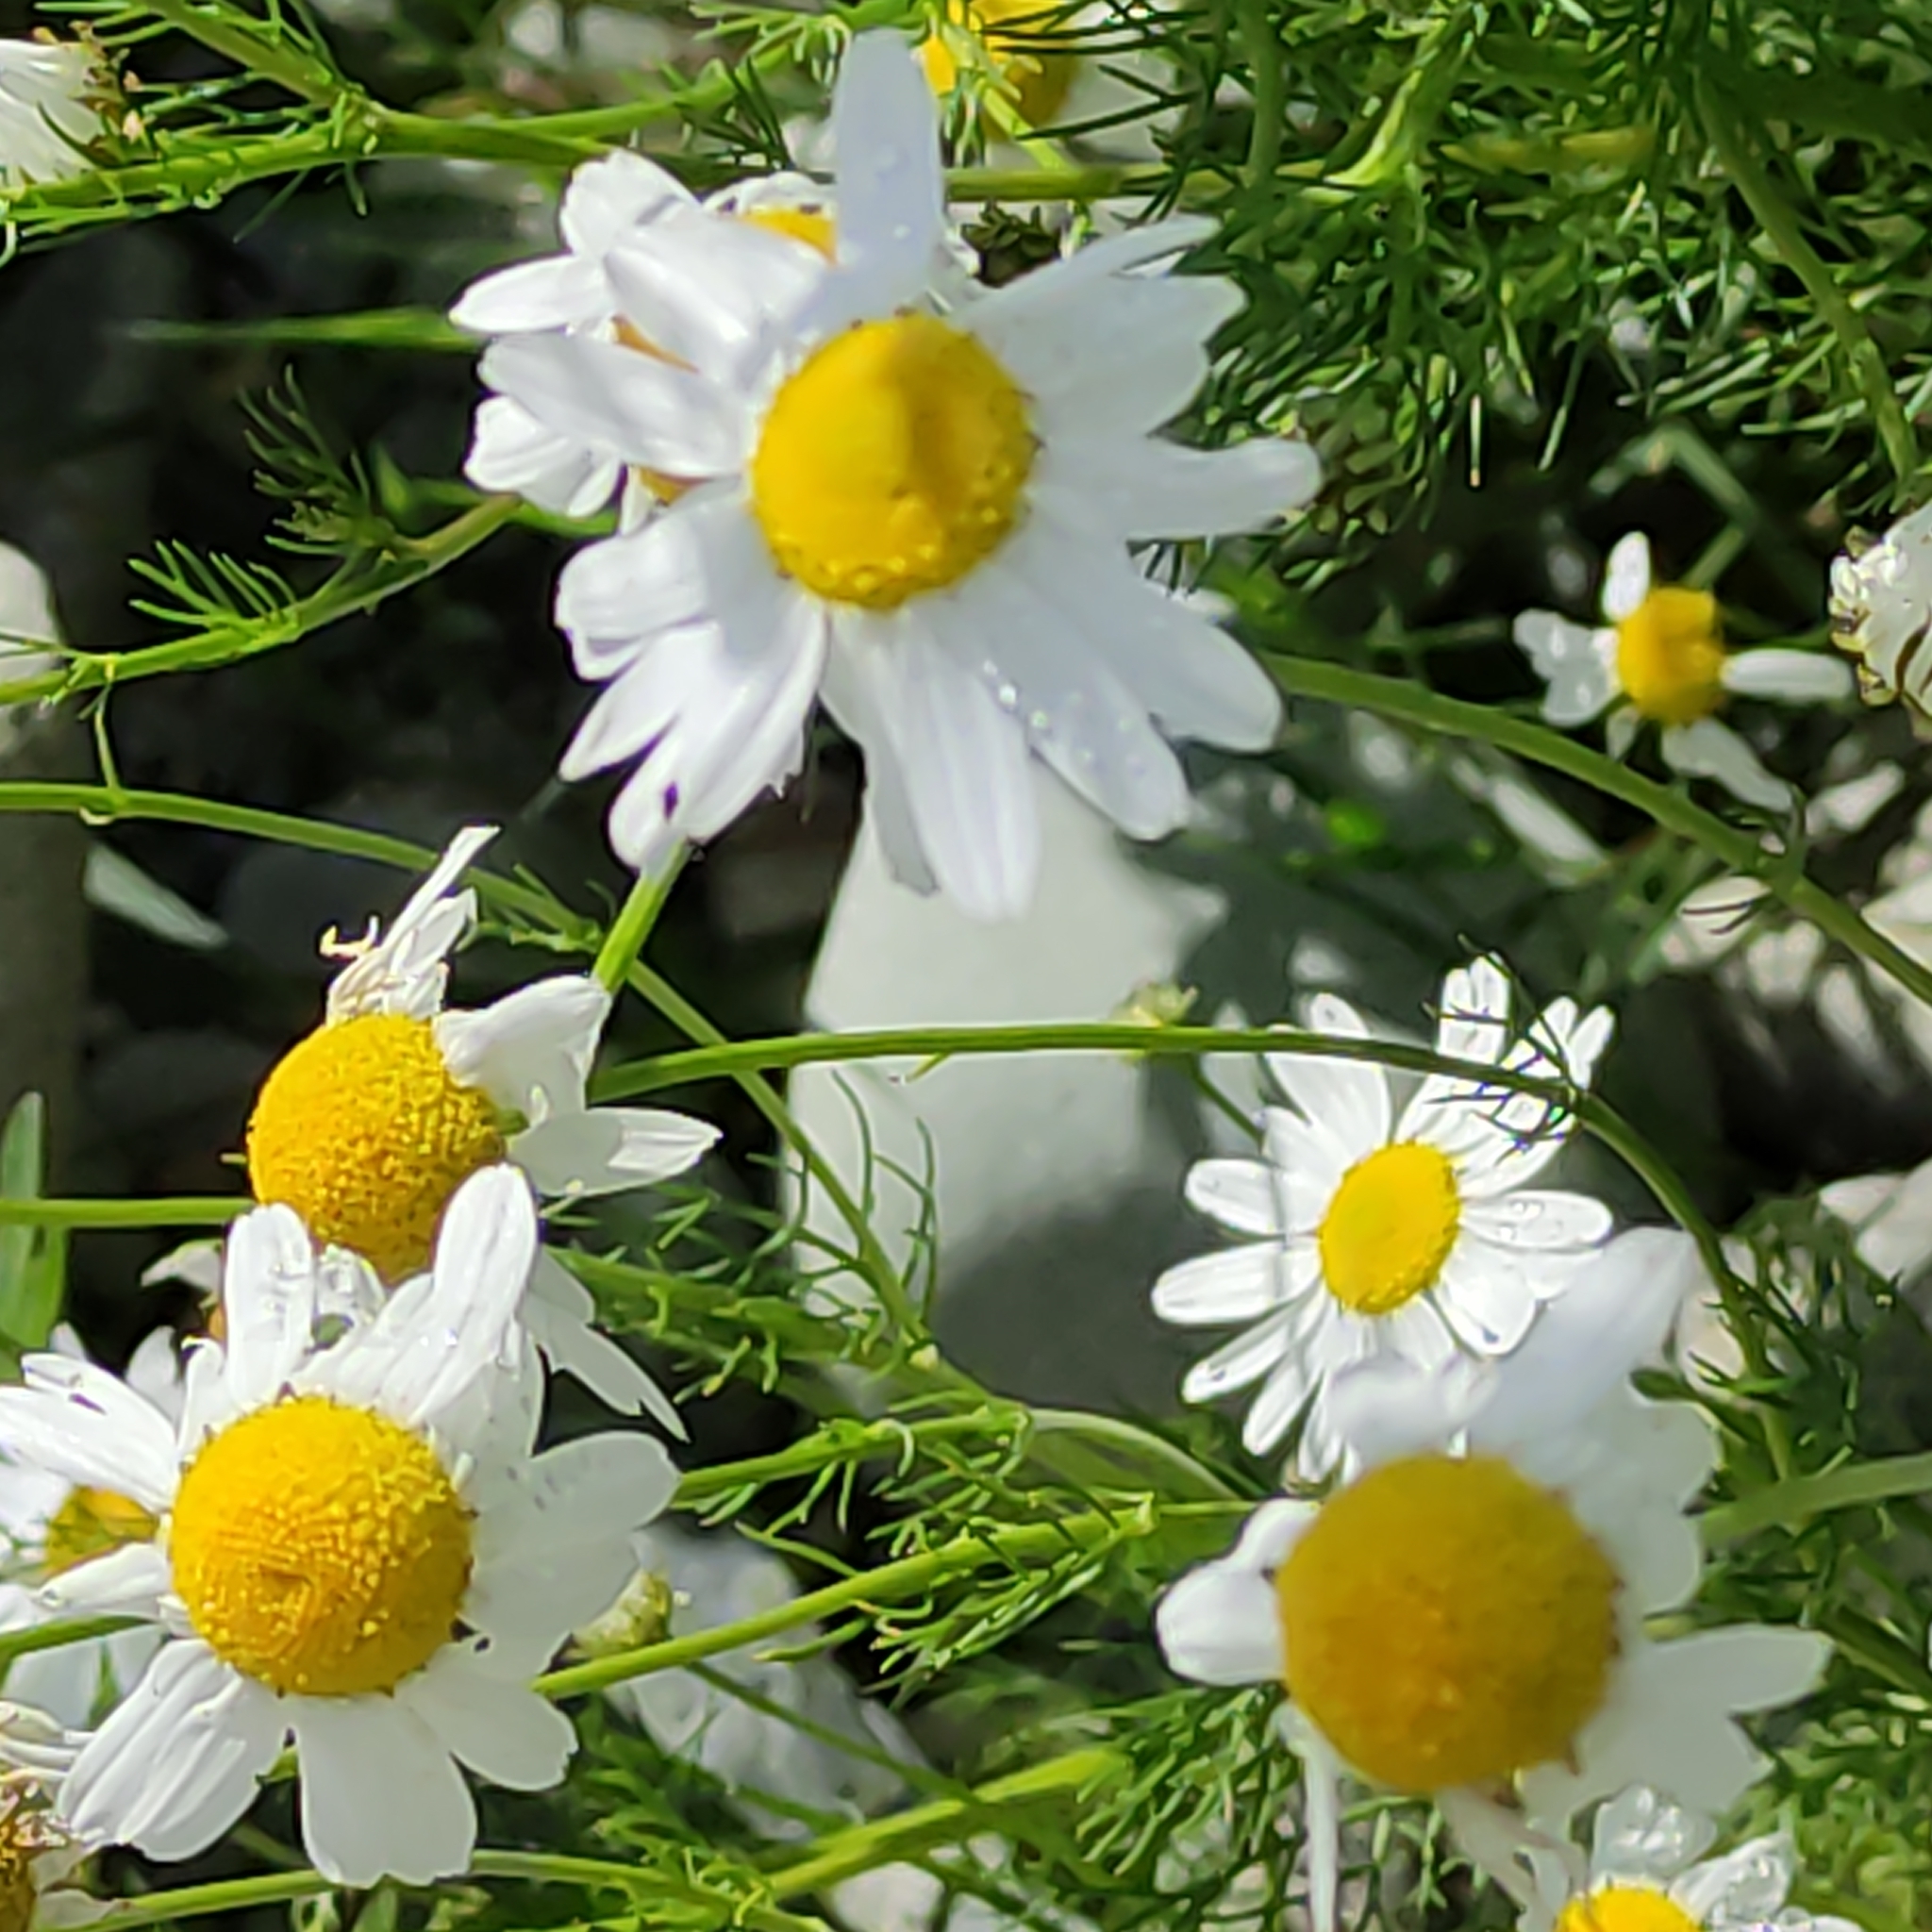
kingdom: Plantae
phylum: Tracheophyta
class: Magnoliopsida
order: Asterales
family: Asteraceae
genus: Tripleurospermum
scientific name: Tripleurospermum inodorum
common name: Scentless mayweed
